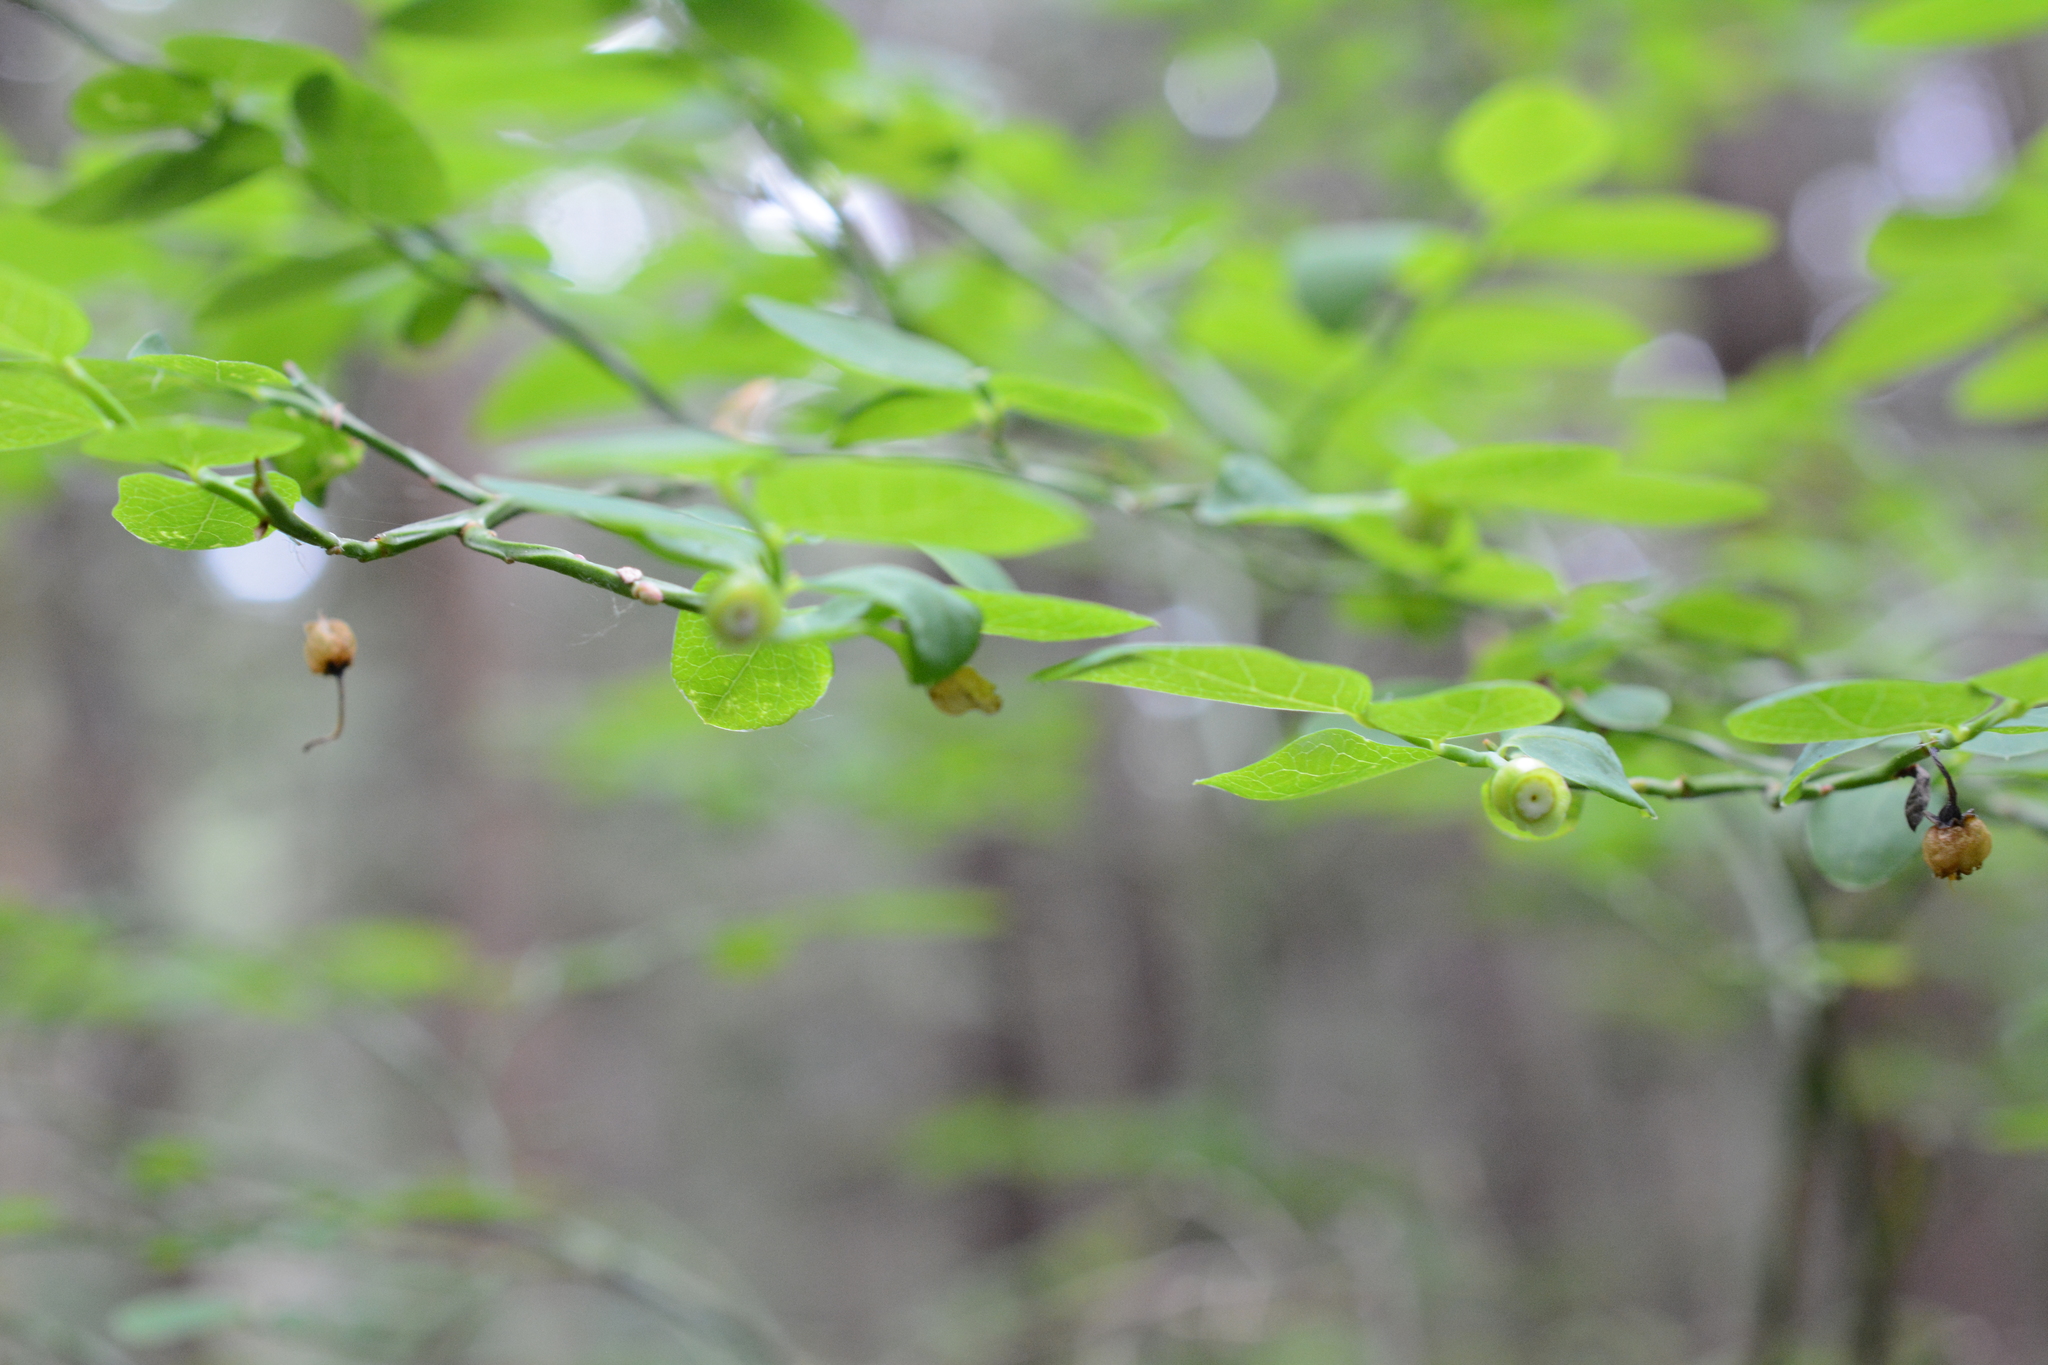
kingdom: Plantae
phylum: Tracheophyta
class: Magnoliopsida
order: Ericales
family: Ericaceae
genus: Vaccinium
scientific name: Vaccinium parvifolium
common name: Red-huckleberry
